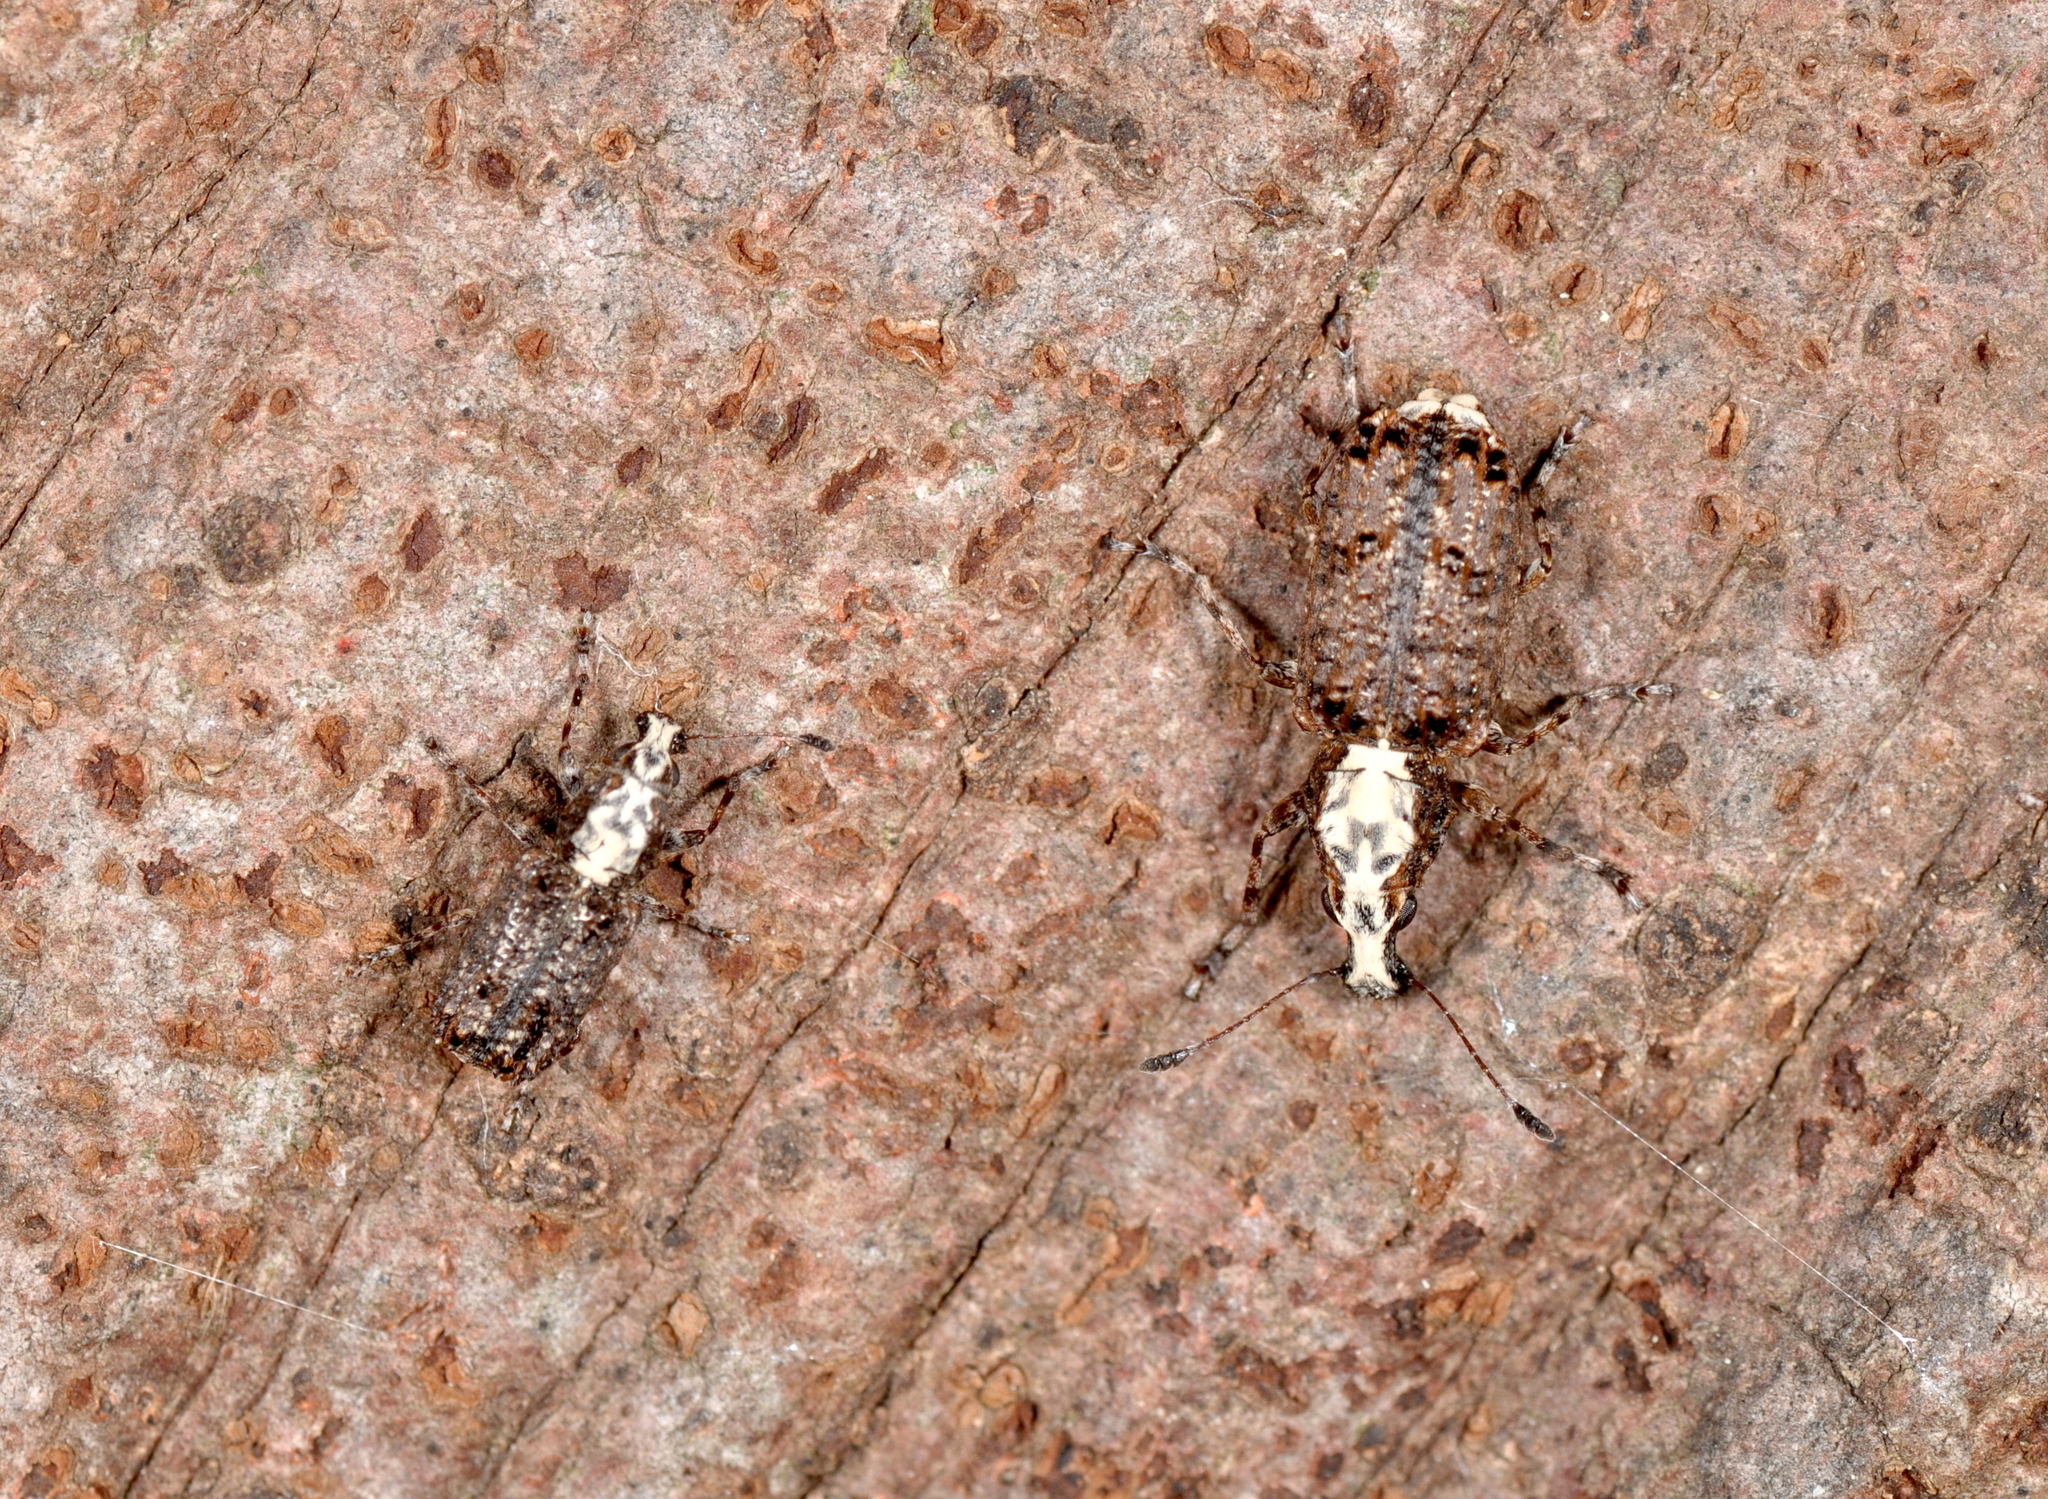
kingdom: Animalia
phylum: Arthropoda
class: Insecta
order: Coleoptera
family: Anthribidae
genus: Meconemus
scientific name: Meconemus impressicollis
